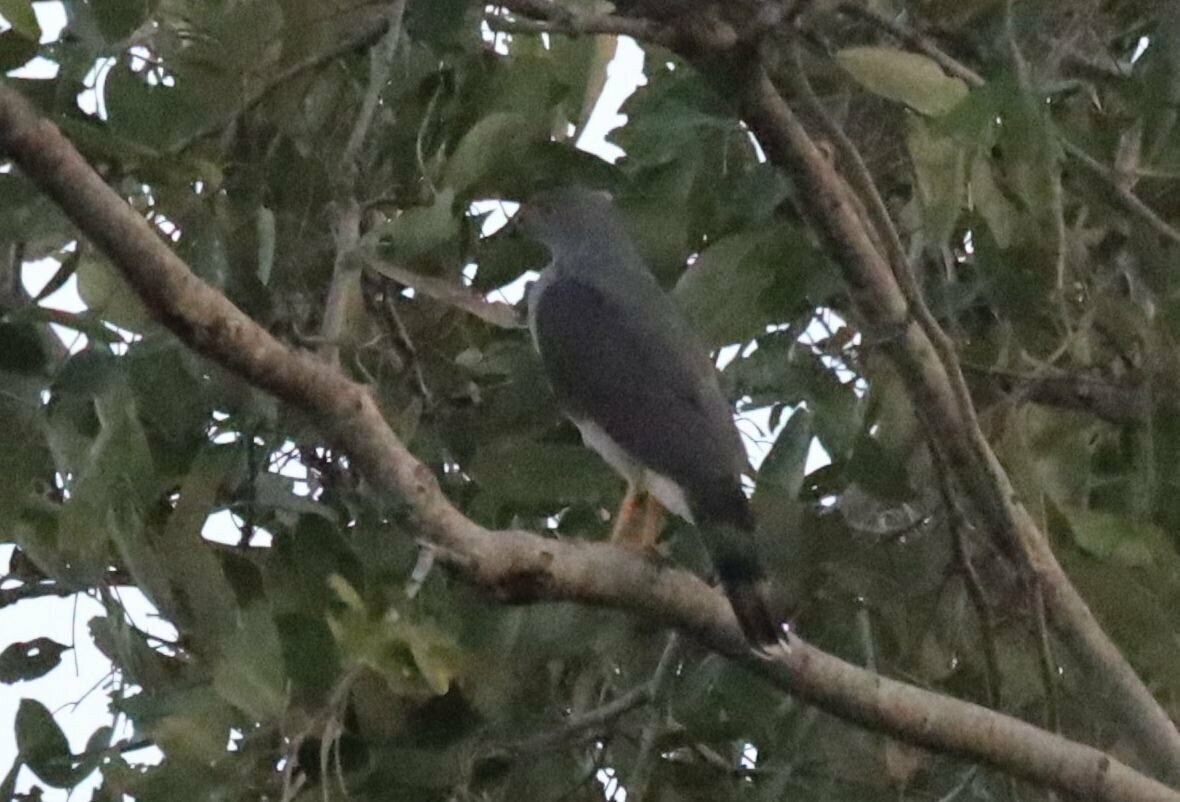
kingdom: Animalia
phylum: Chordata
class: Aves
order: Accipitriformes
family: Accipitridae
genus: Accipiter
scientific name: Accipiter tachiro
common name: African goshawk
